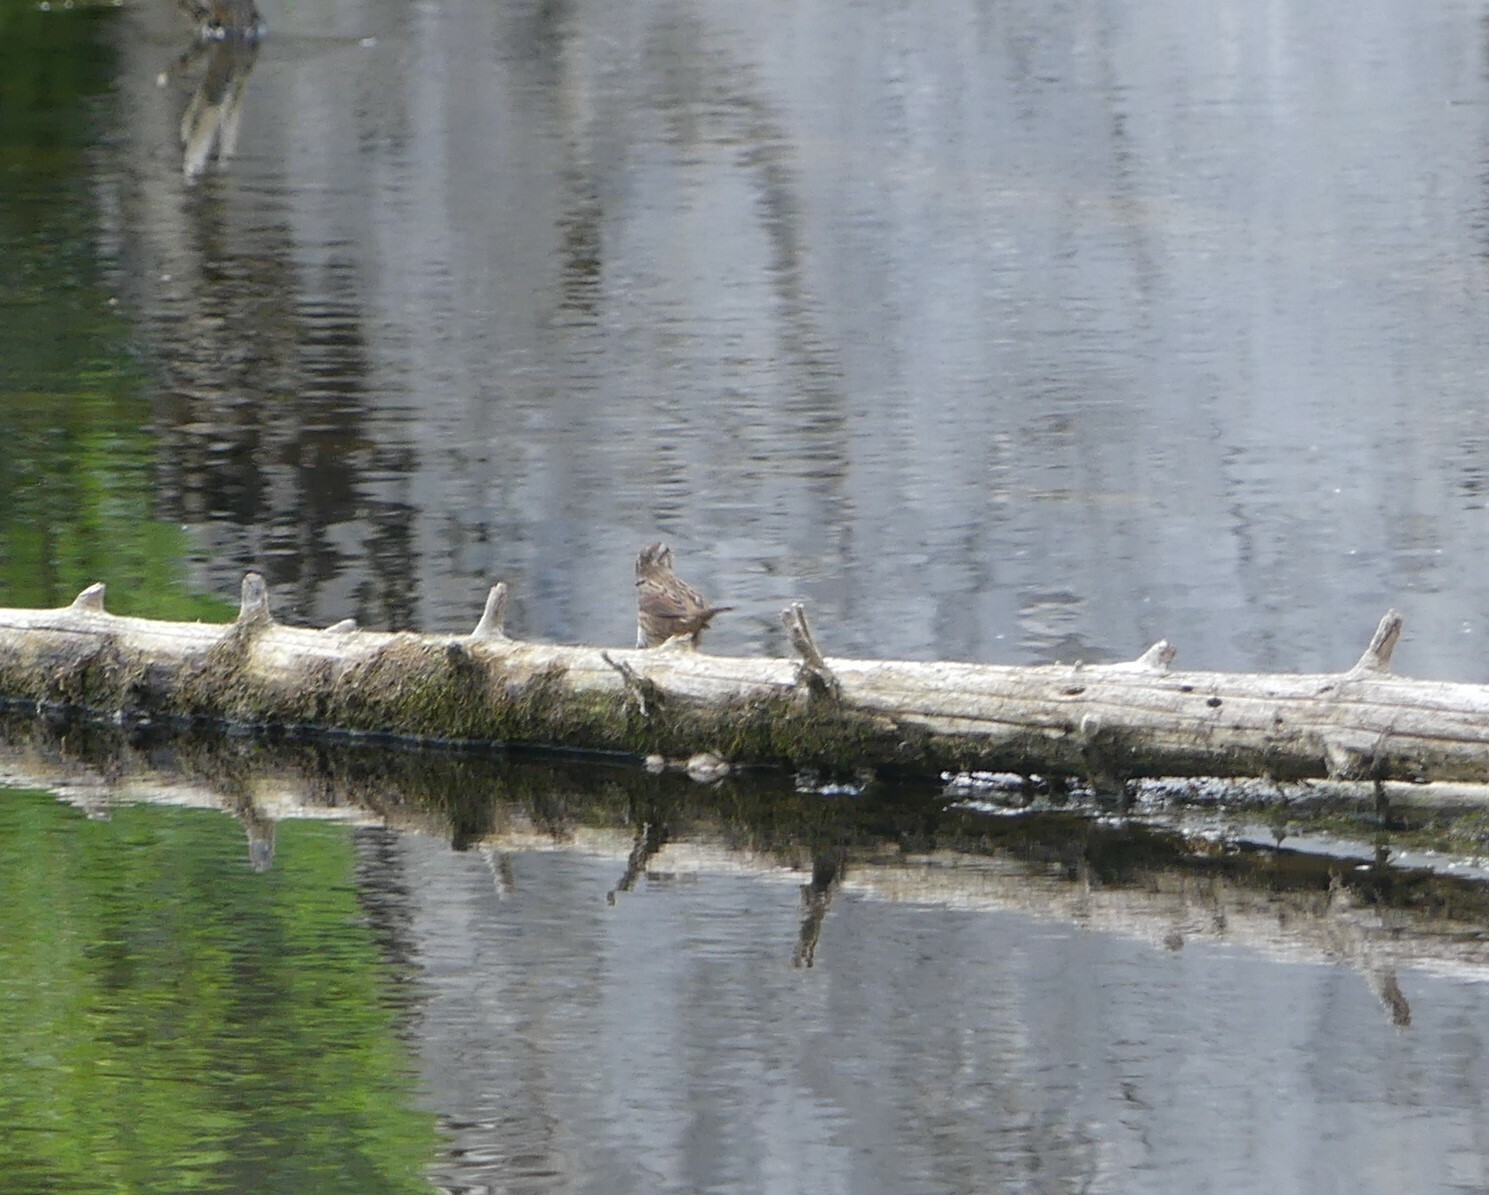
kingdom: Animalia
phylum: Chordata
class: Aves
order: Passeriformes
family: Passerellidae
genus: Melospiza
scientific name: Melospiza melodia
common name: Song sparrow
